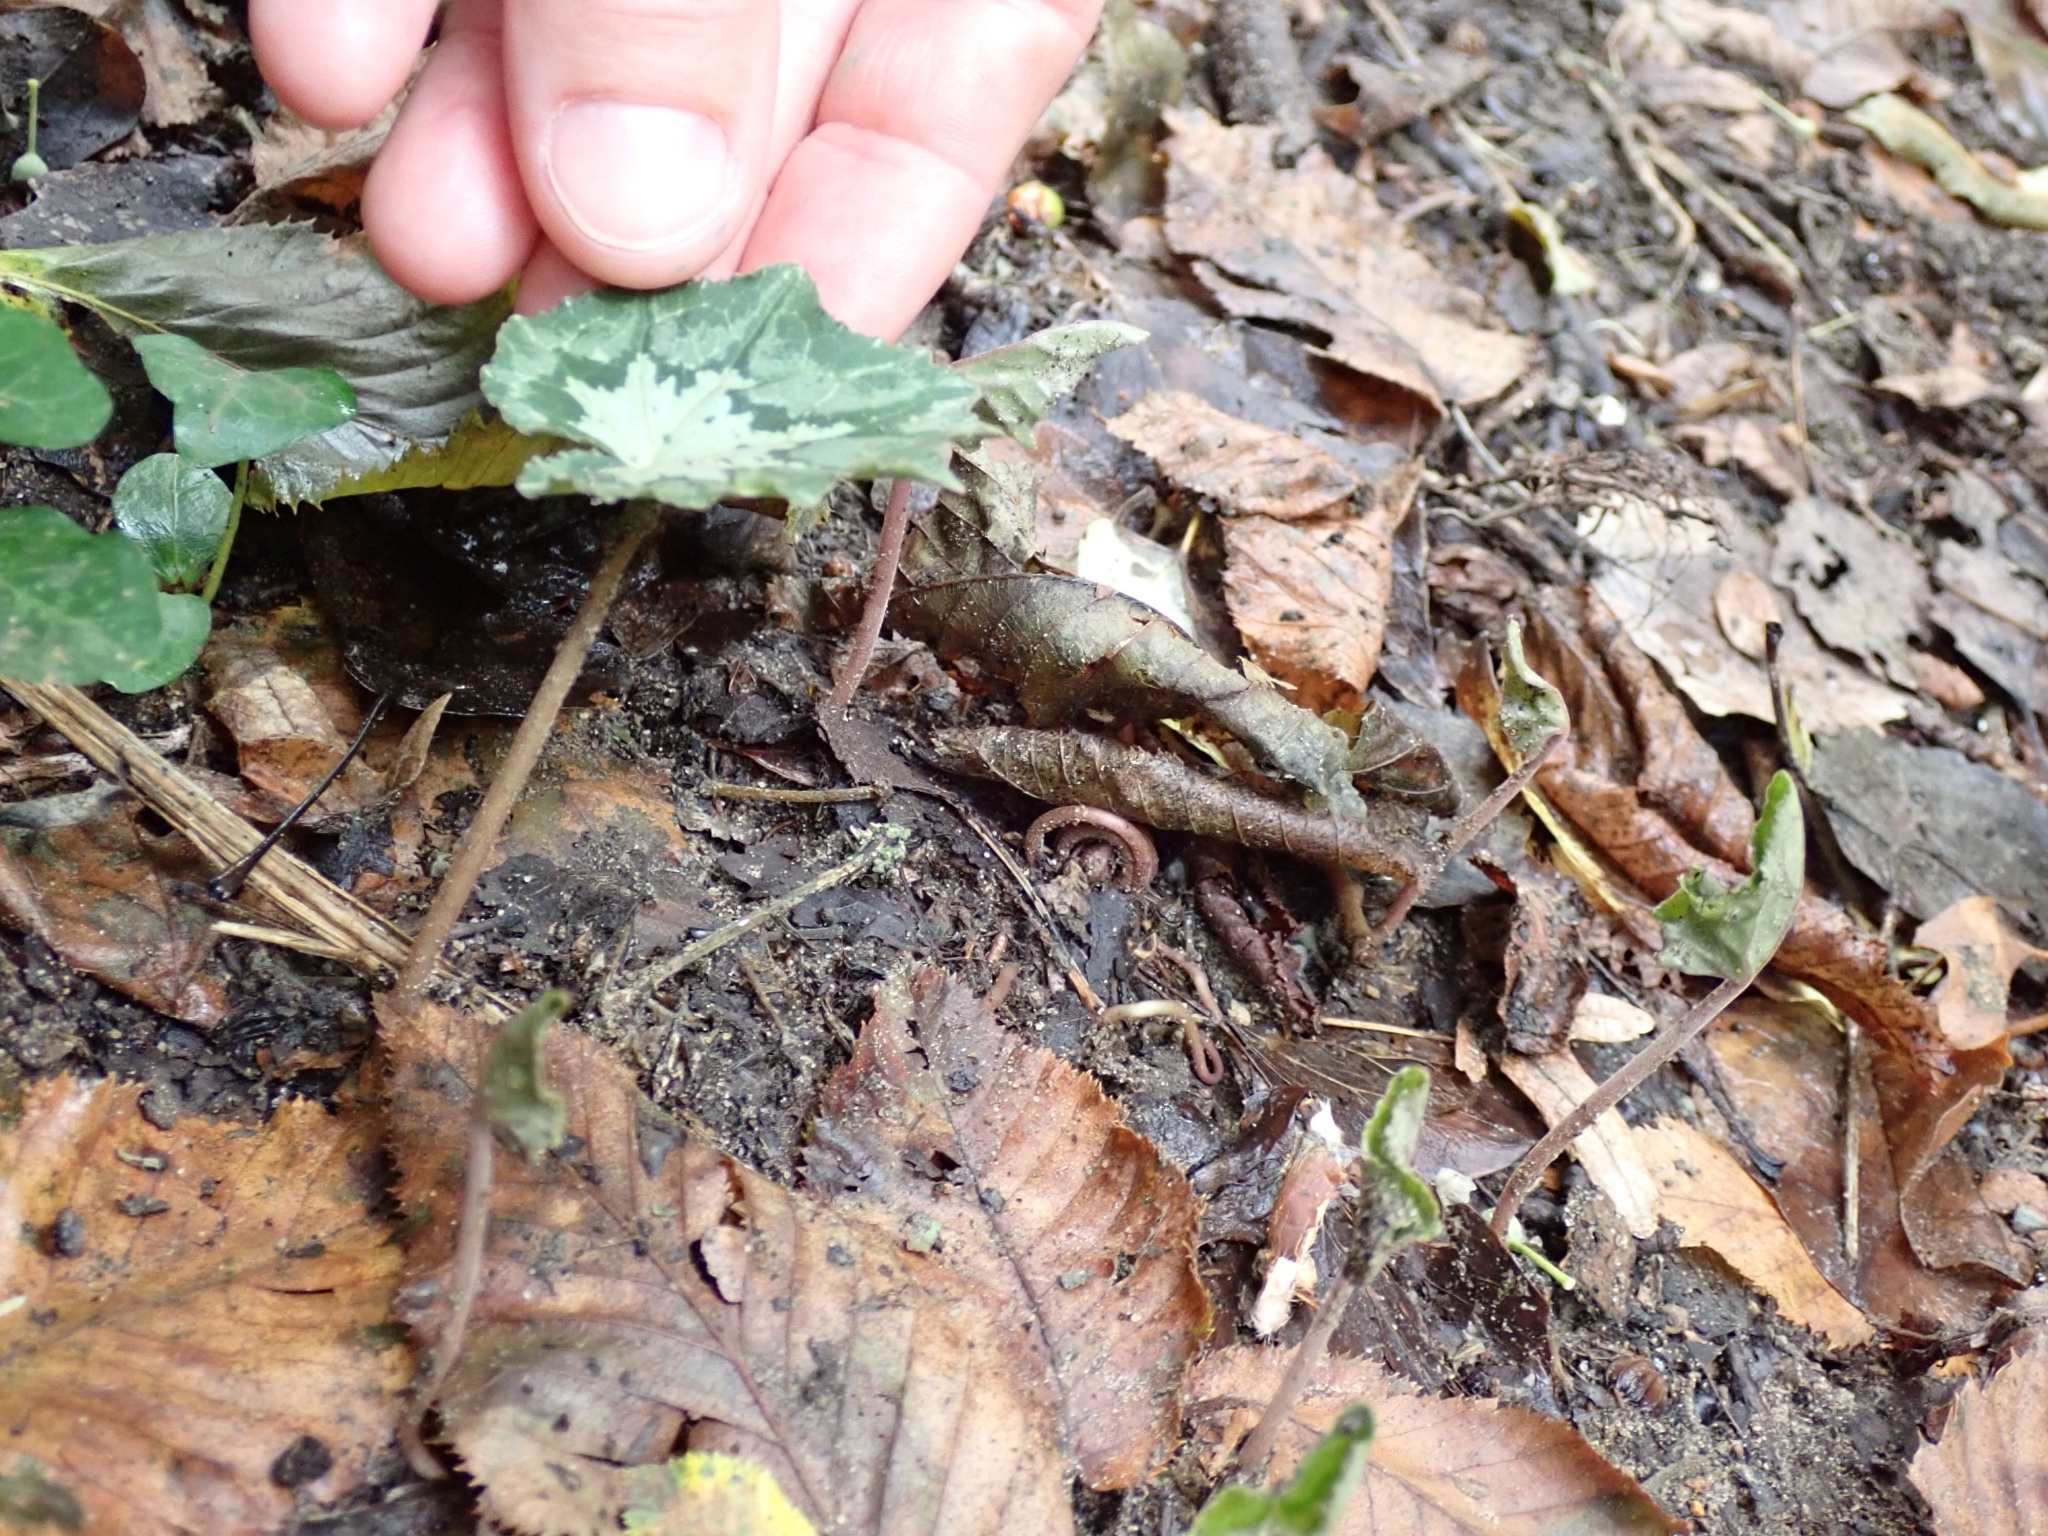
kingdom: Plantae
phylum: Tracheophyta
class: Magnoliopsida
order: Ericales
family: Primulaceae
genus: Cyclamen
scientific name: Cyclamen hederifolium
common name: Sowbread
